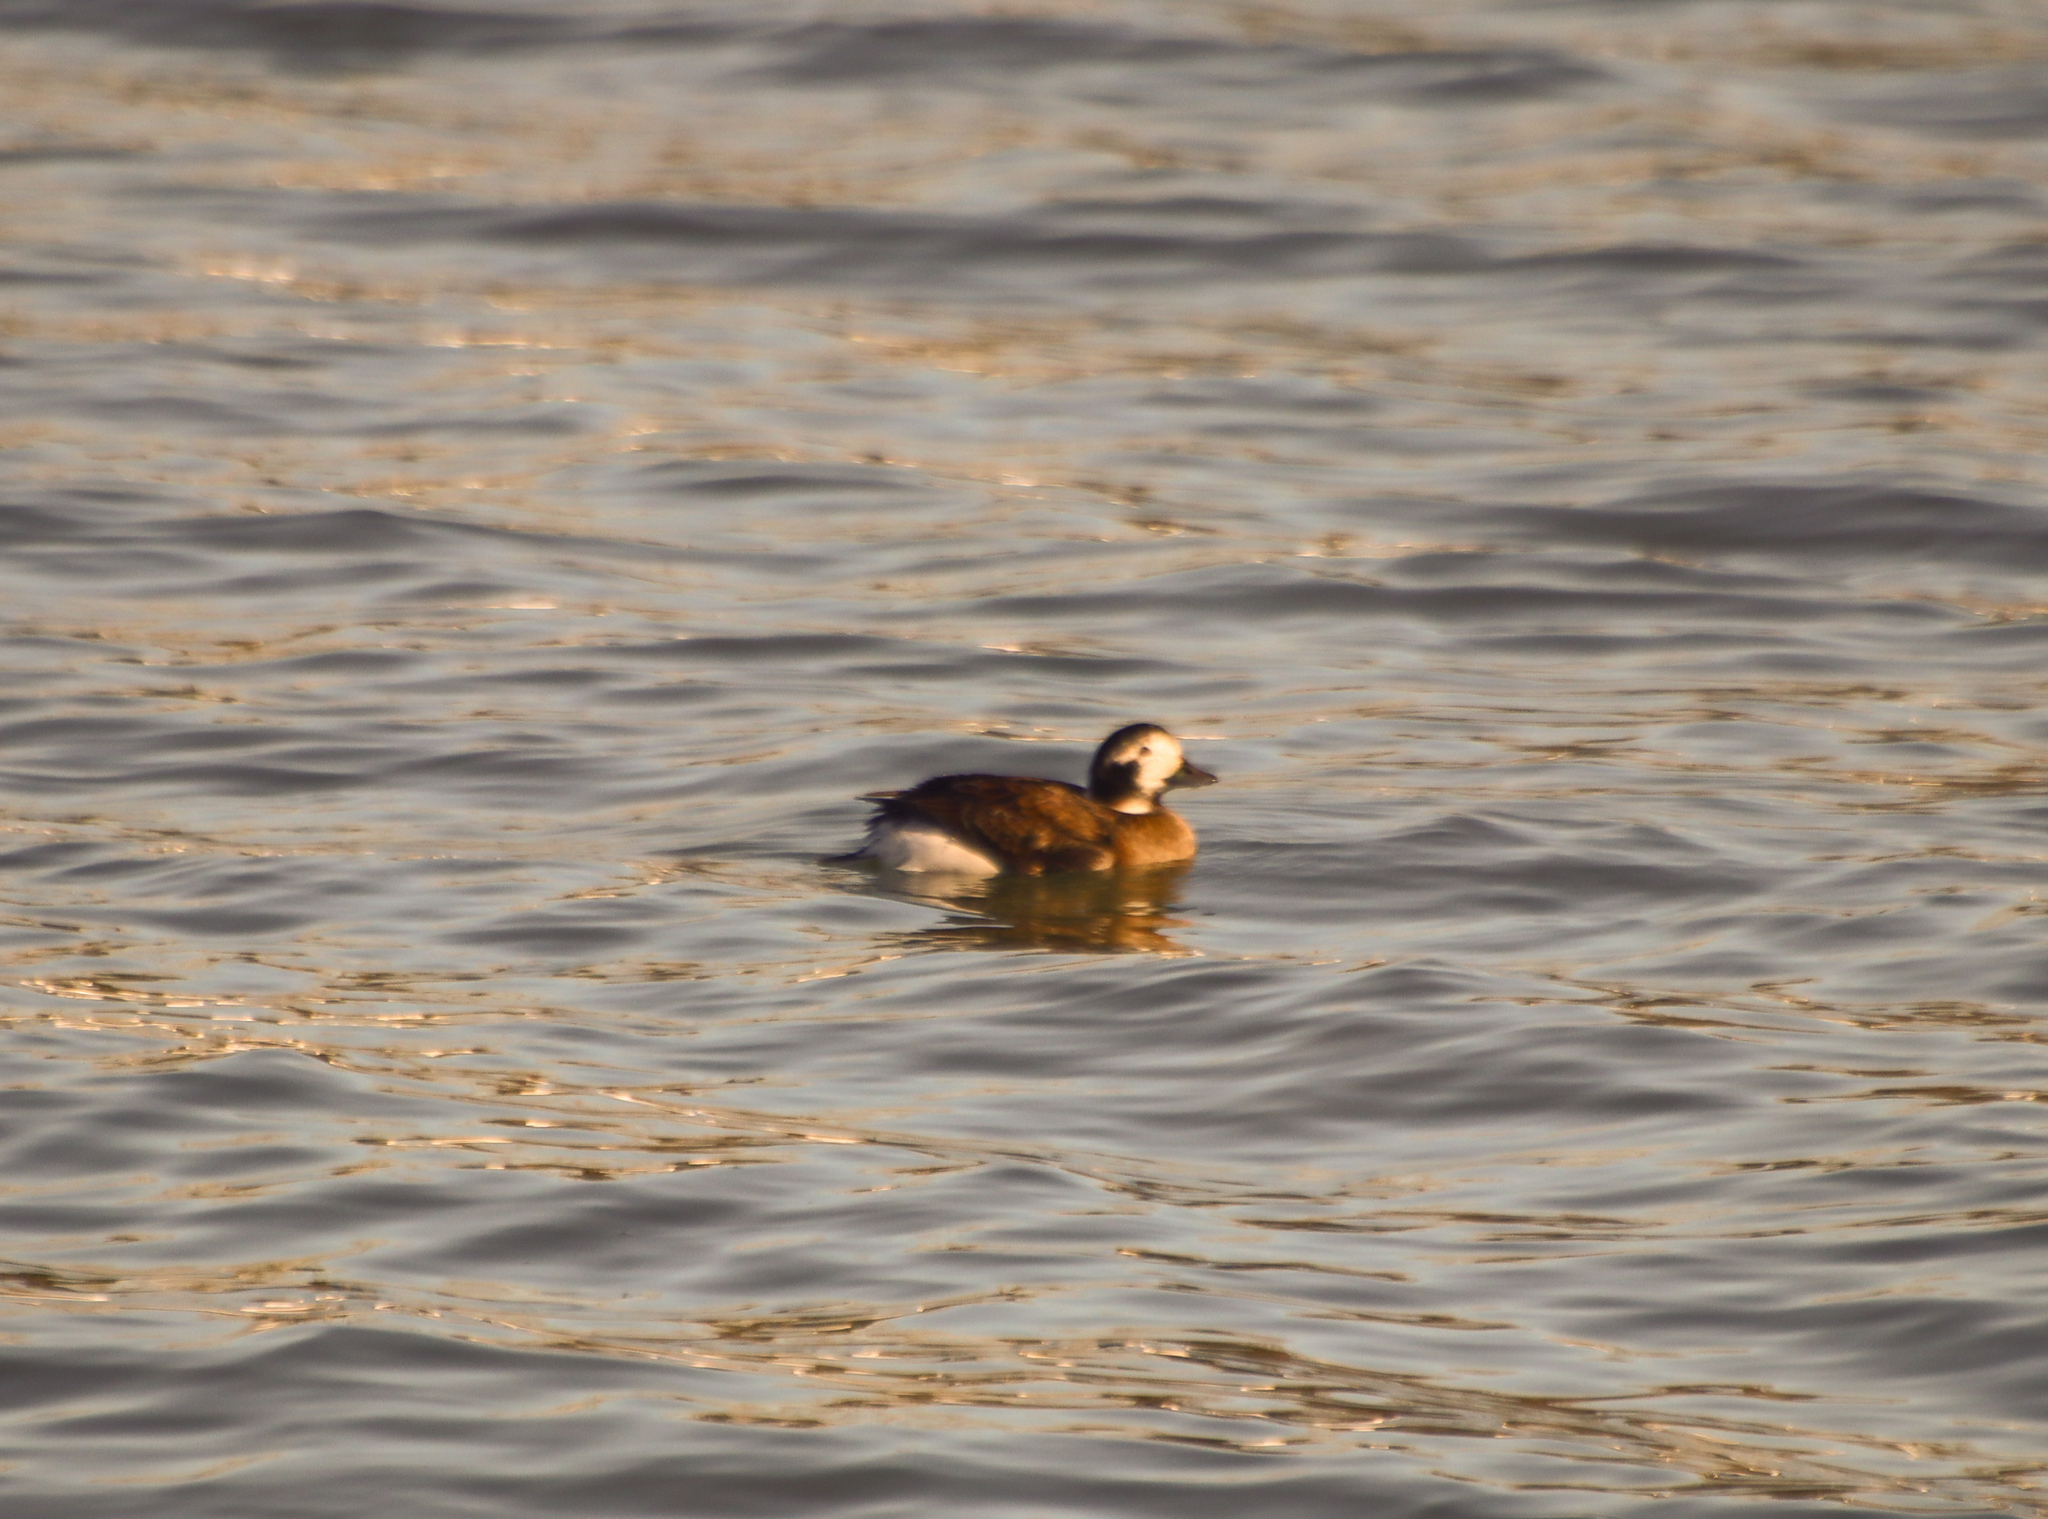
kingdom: Animalia
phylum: Chordata
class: Aves
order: Anseriformes
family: Anatidae
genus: Clangula
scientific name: Clangula hyemalis
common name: Long-tailed duck
